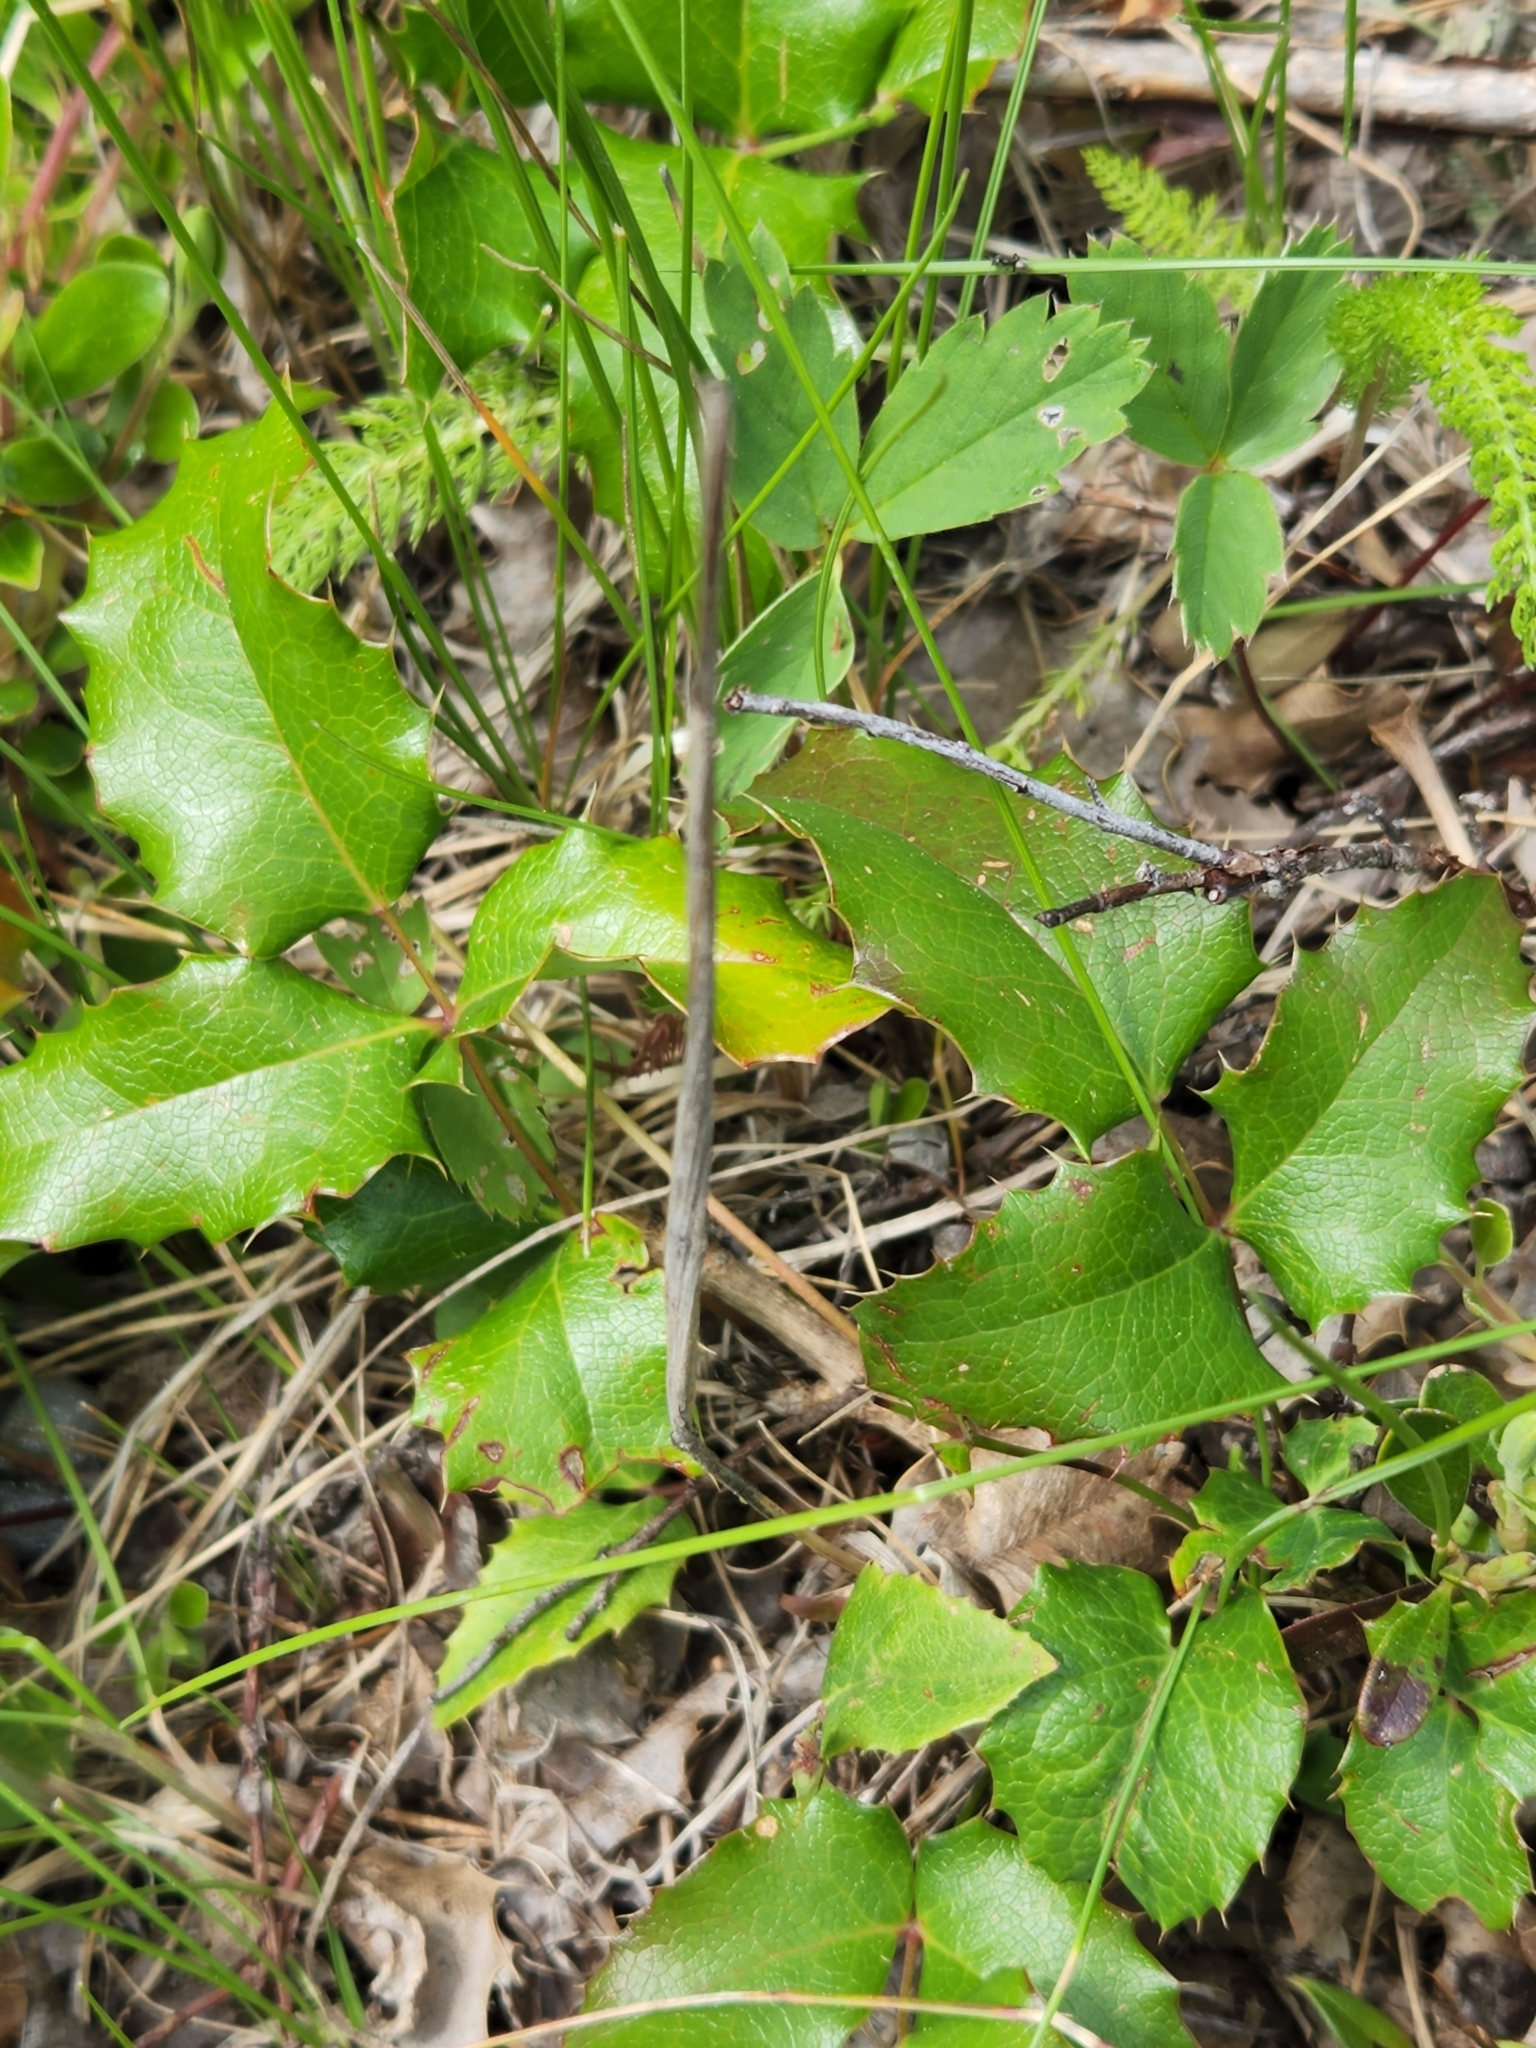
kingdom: Plantae
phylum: Tracheophyta
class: Magnoliopsida
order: Ranunculales
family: Berberidaceae
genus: Mahonia
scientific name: Mahonia aquifolium
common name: Oregon-grape
